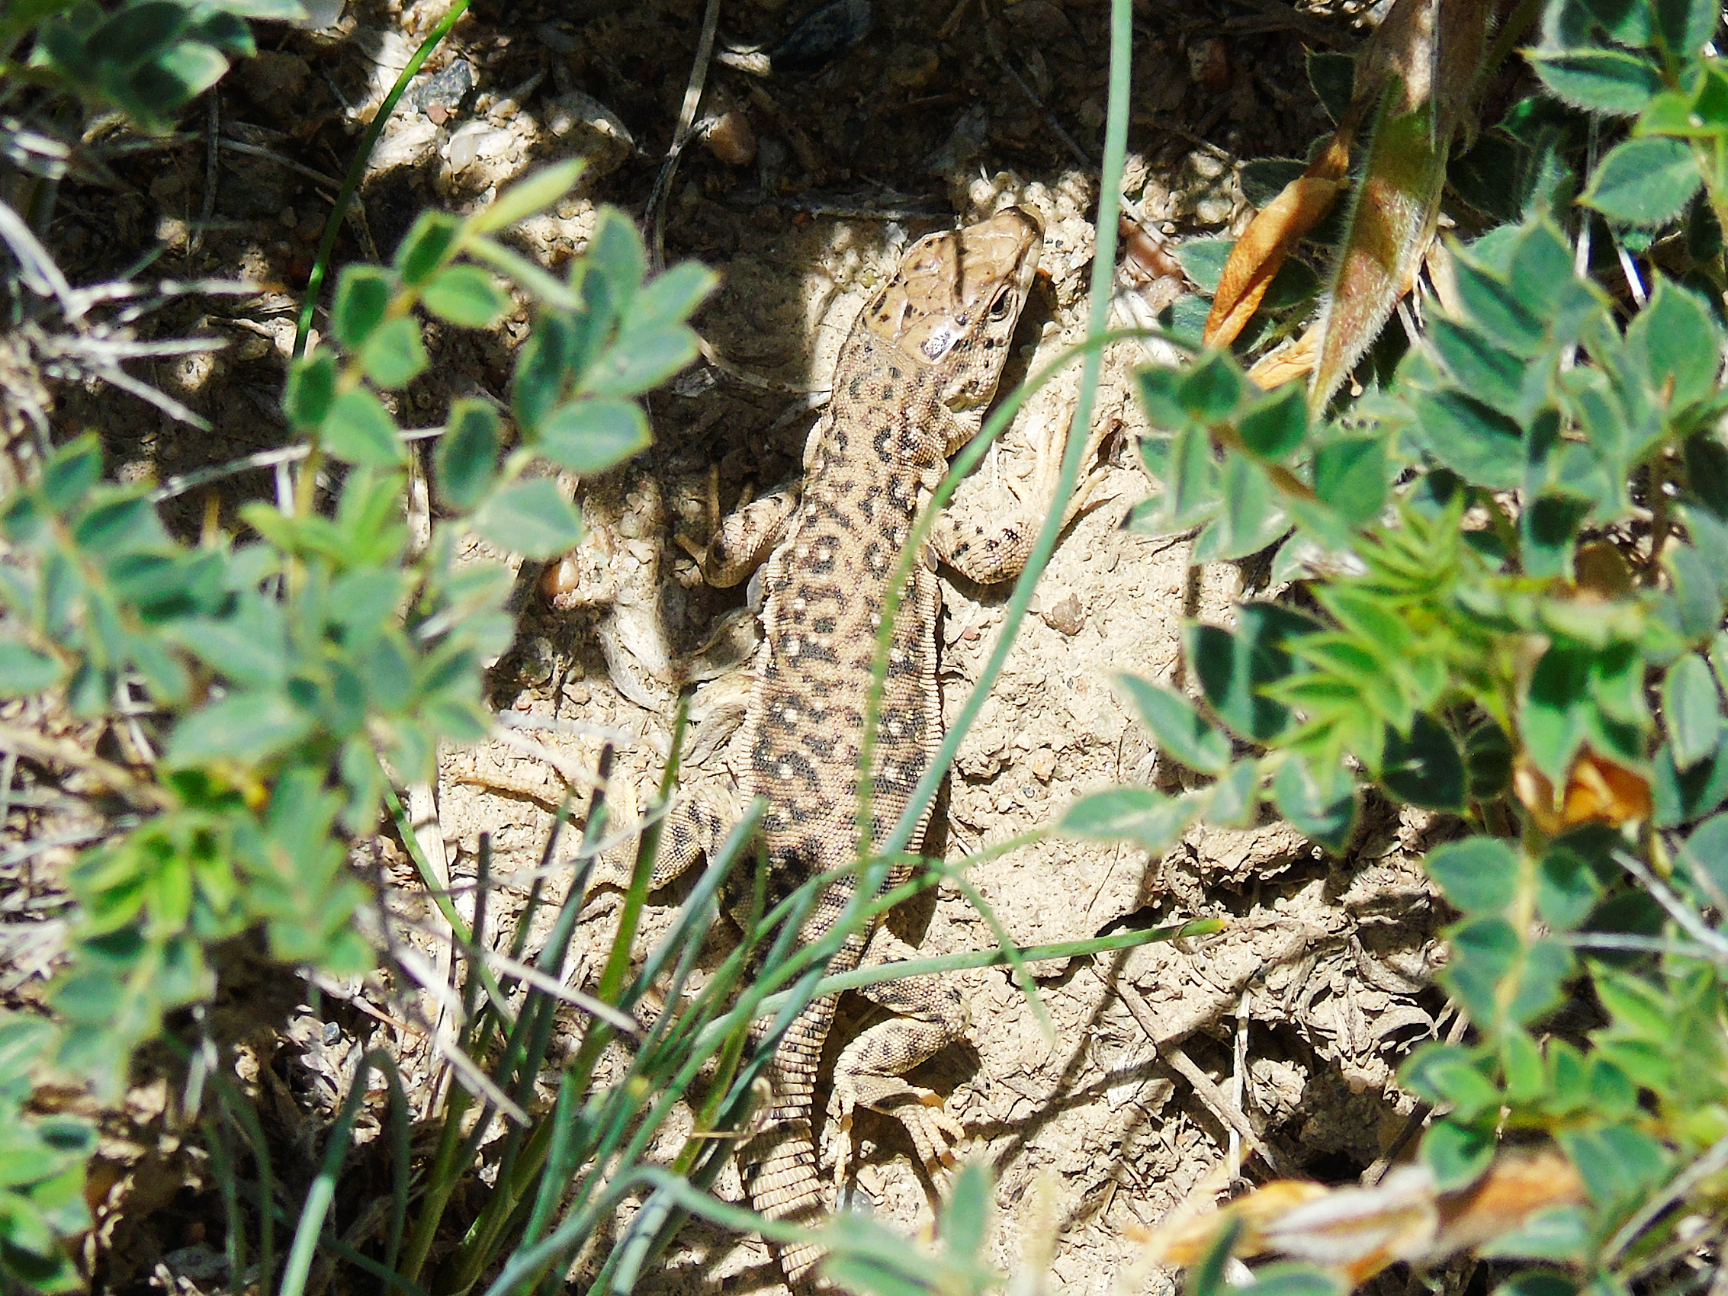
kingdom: Animalia
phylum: Chordata
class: Squamata
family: Lacertidae
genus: Eremias
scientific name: Eremias szczerbaki
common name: Szczerbak’s racerunner
